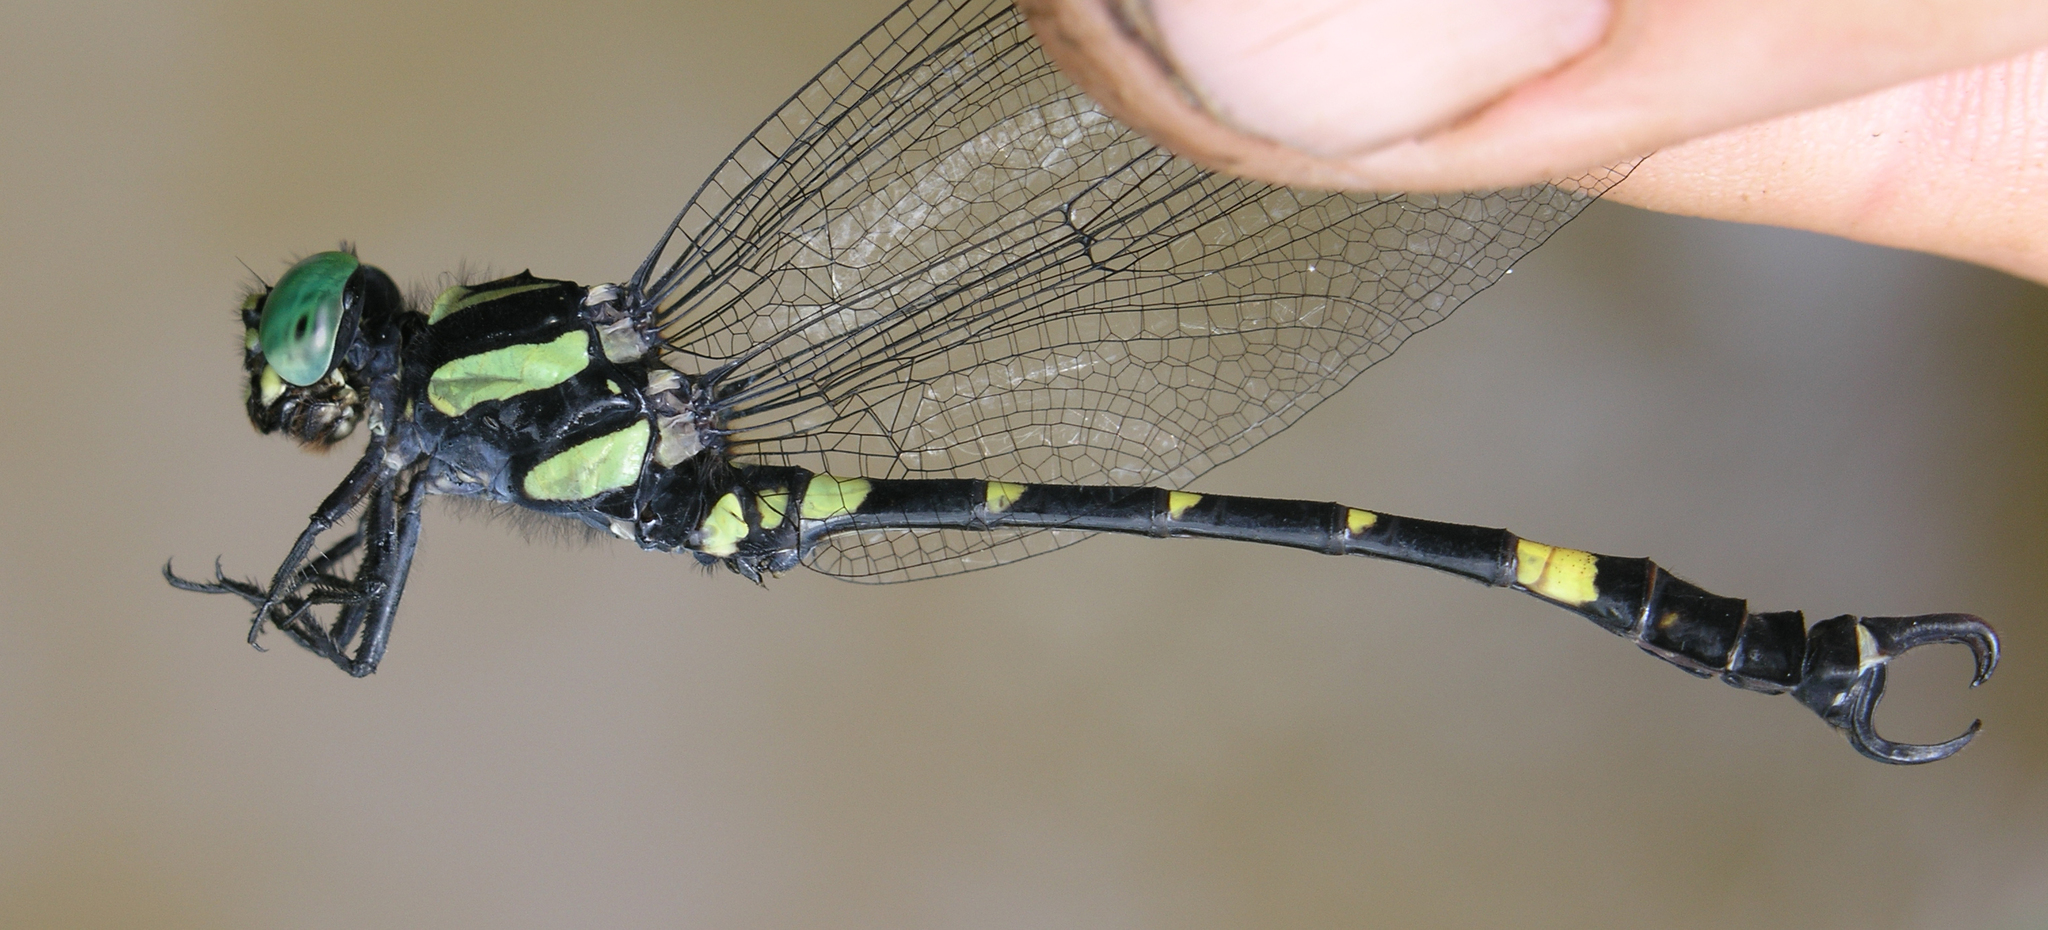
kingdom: Animalia
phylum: Arthropoda
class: Insecta
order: Odonata
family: Gomphidae
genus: Lamelligomphus
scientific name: Lamelligomphus castor
